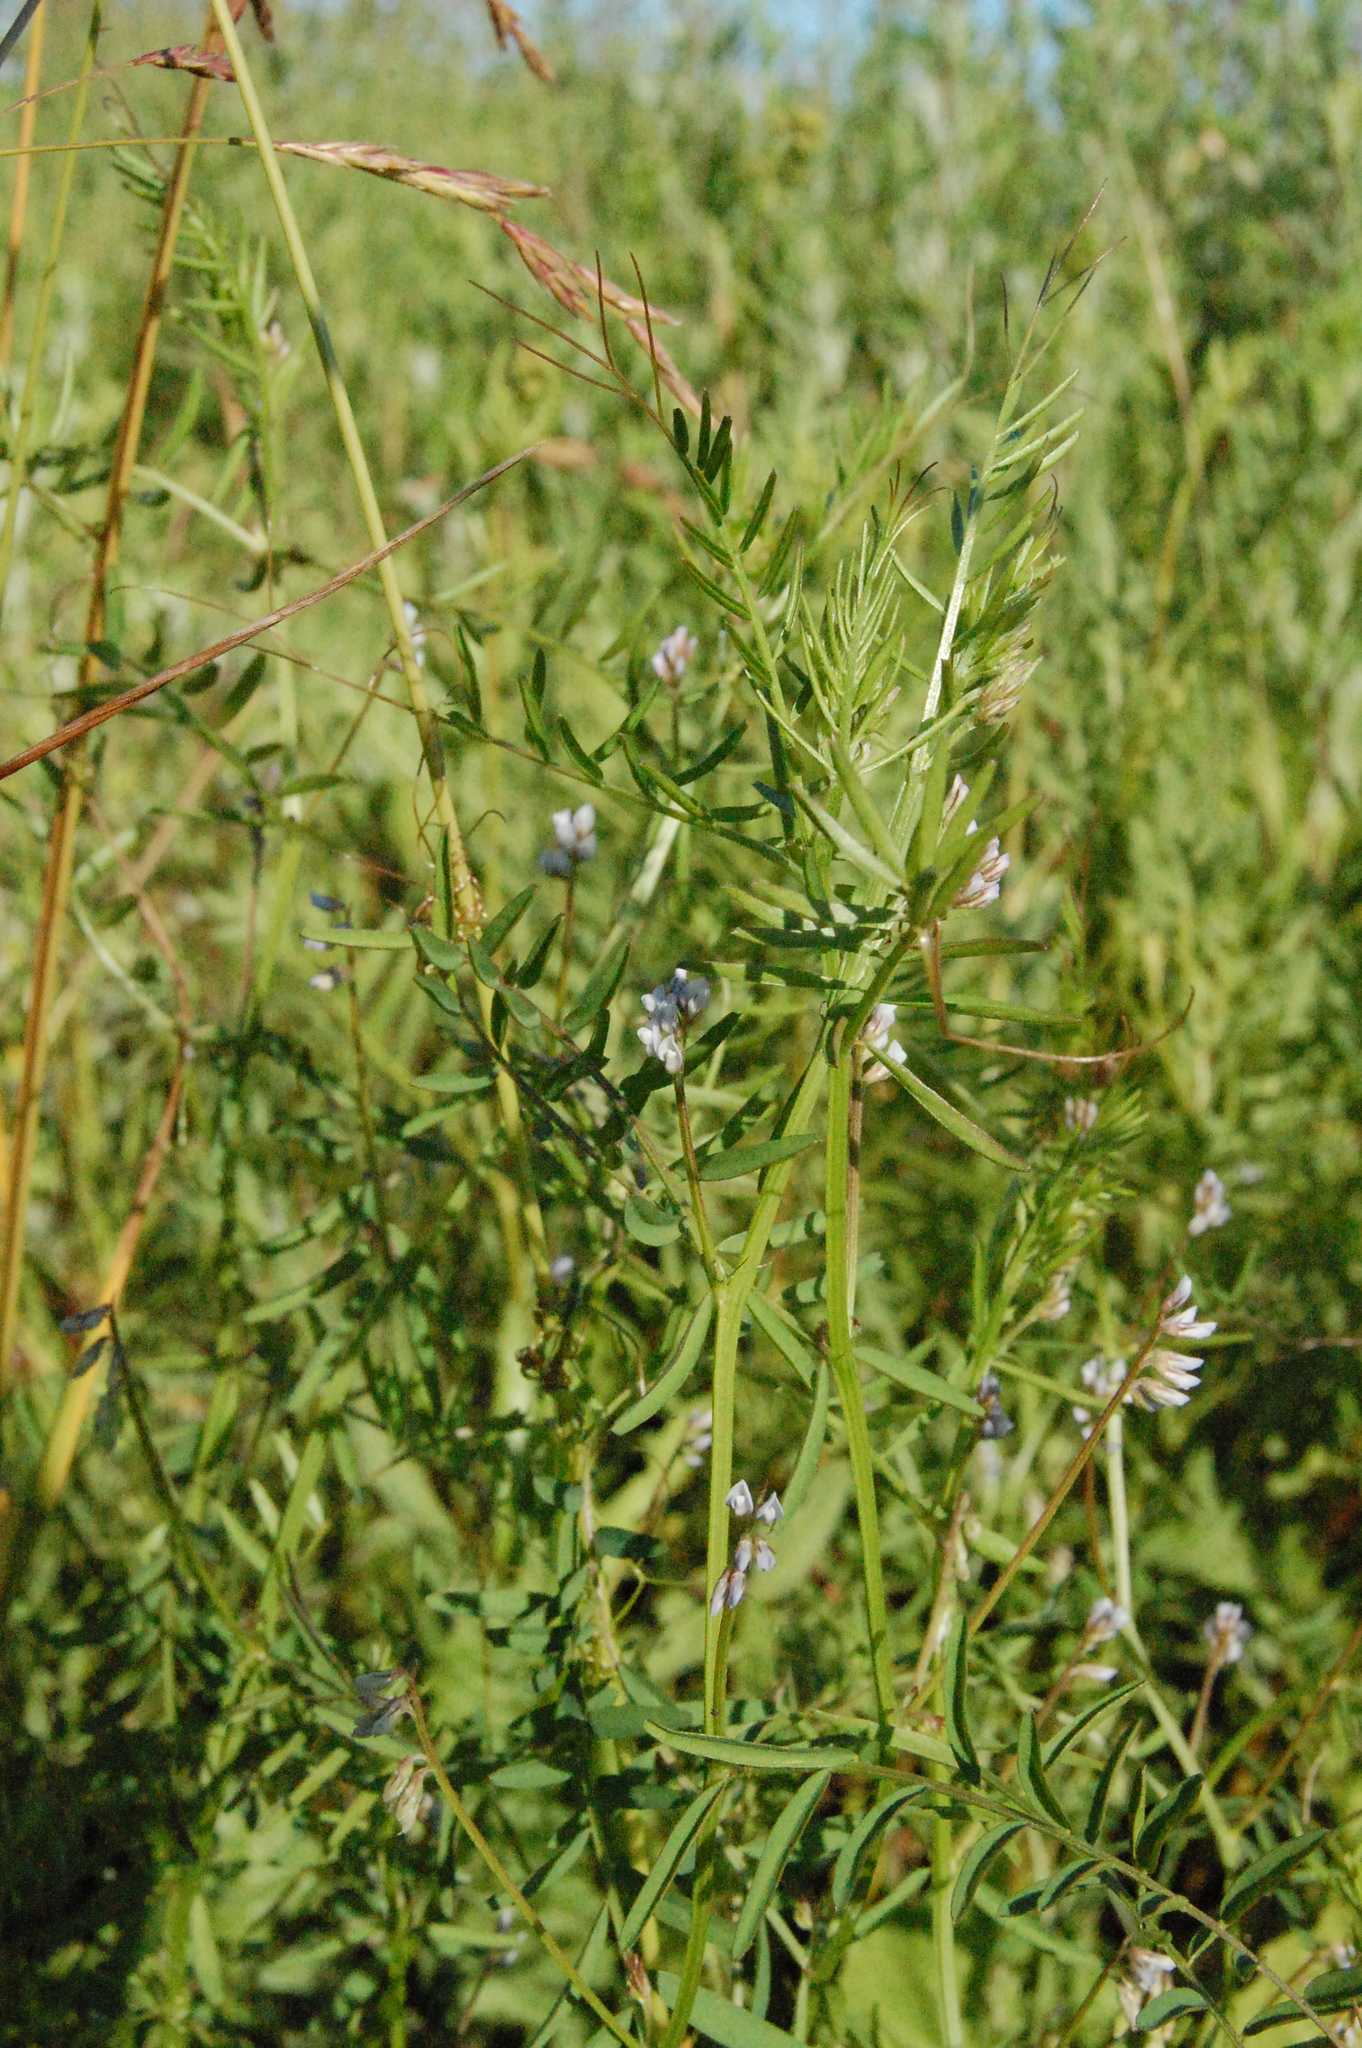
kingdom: Plantae
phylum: Tracheophyta
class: Magnoliopsida
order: Fabales
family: Fabaceae
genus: Vicia
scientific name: Vicia hirsuta
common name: Tiny vetch
